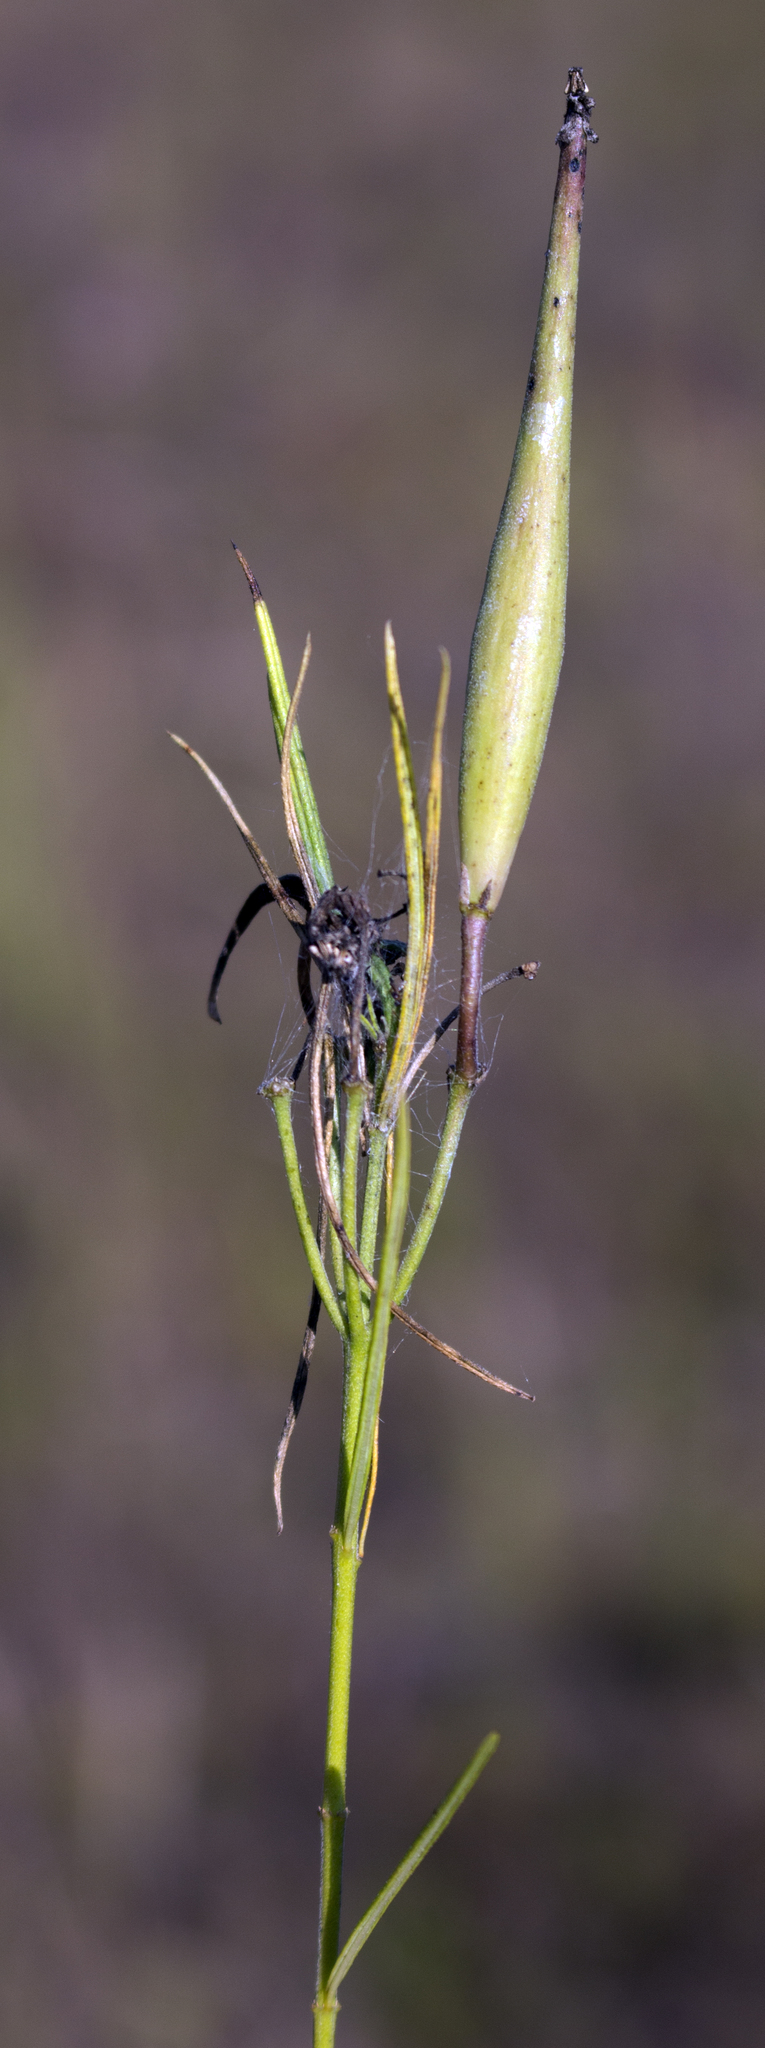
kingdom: Plantae
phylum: Tracheophyta
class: Magnoliopsida
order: Gentianales
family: Apocynaceae
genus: Asclepias
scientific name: Asclepias verticillata
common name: Eastern whorled milkweed
